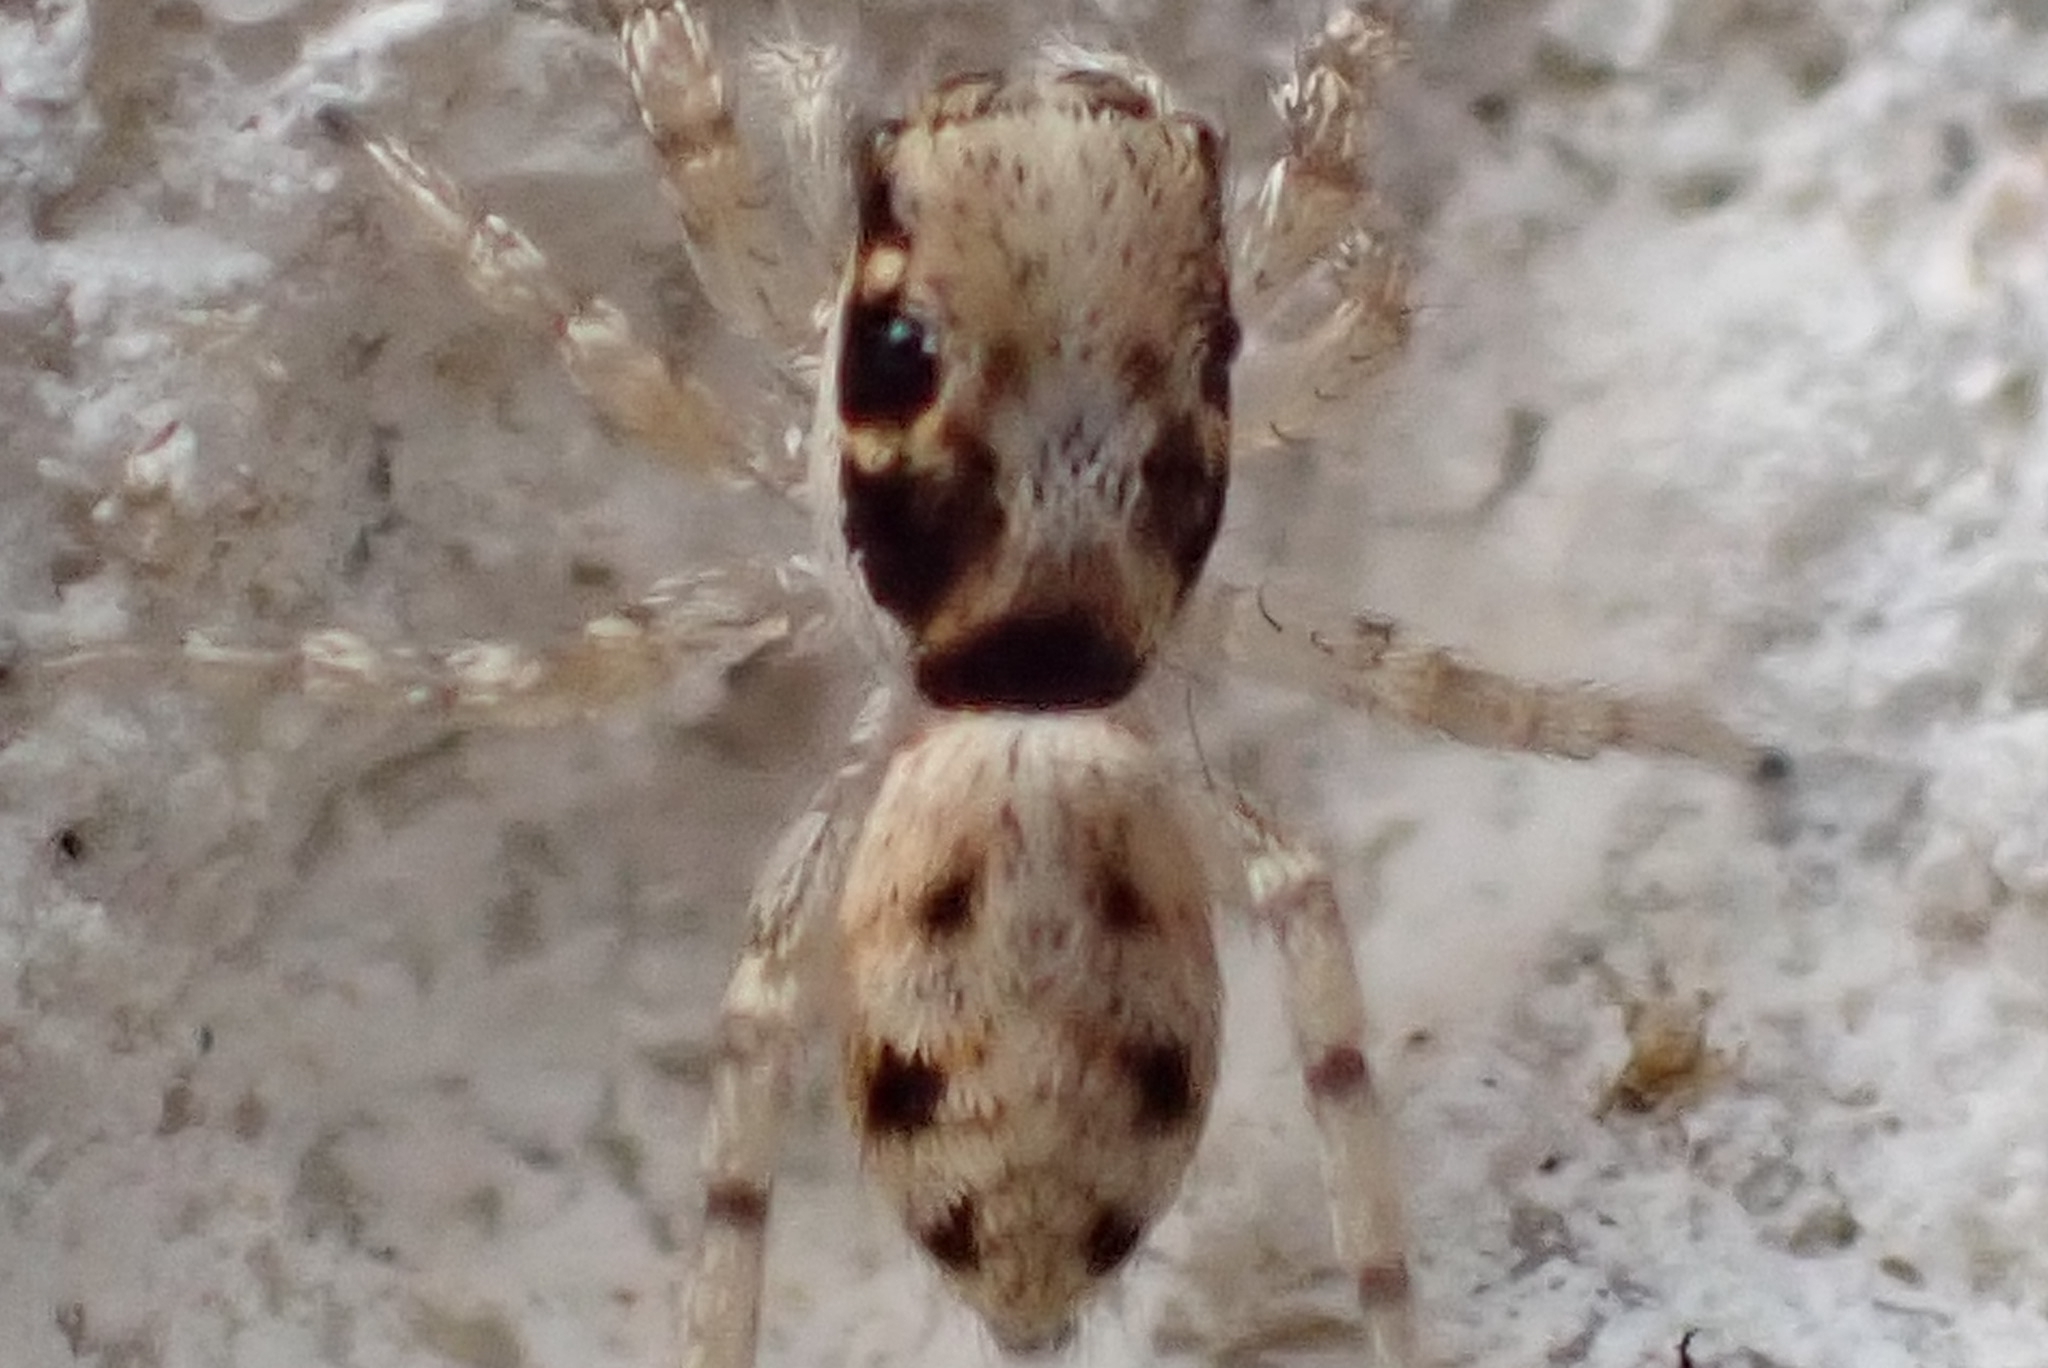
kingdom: Animalia
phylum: Arthropoda
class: Arachnida
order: Araneae
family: Salticidae
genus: Salticus
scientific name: Salticus mutabilis
